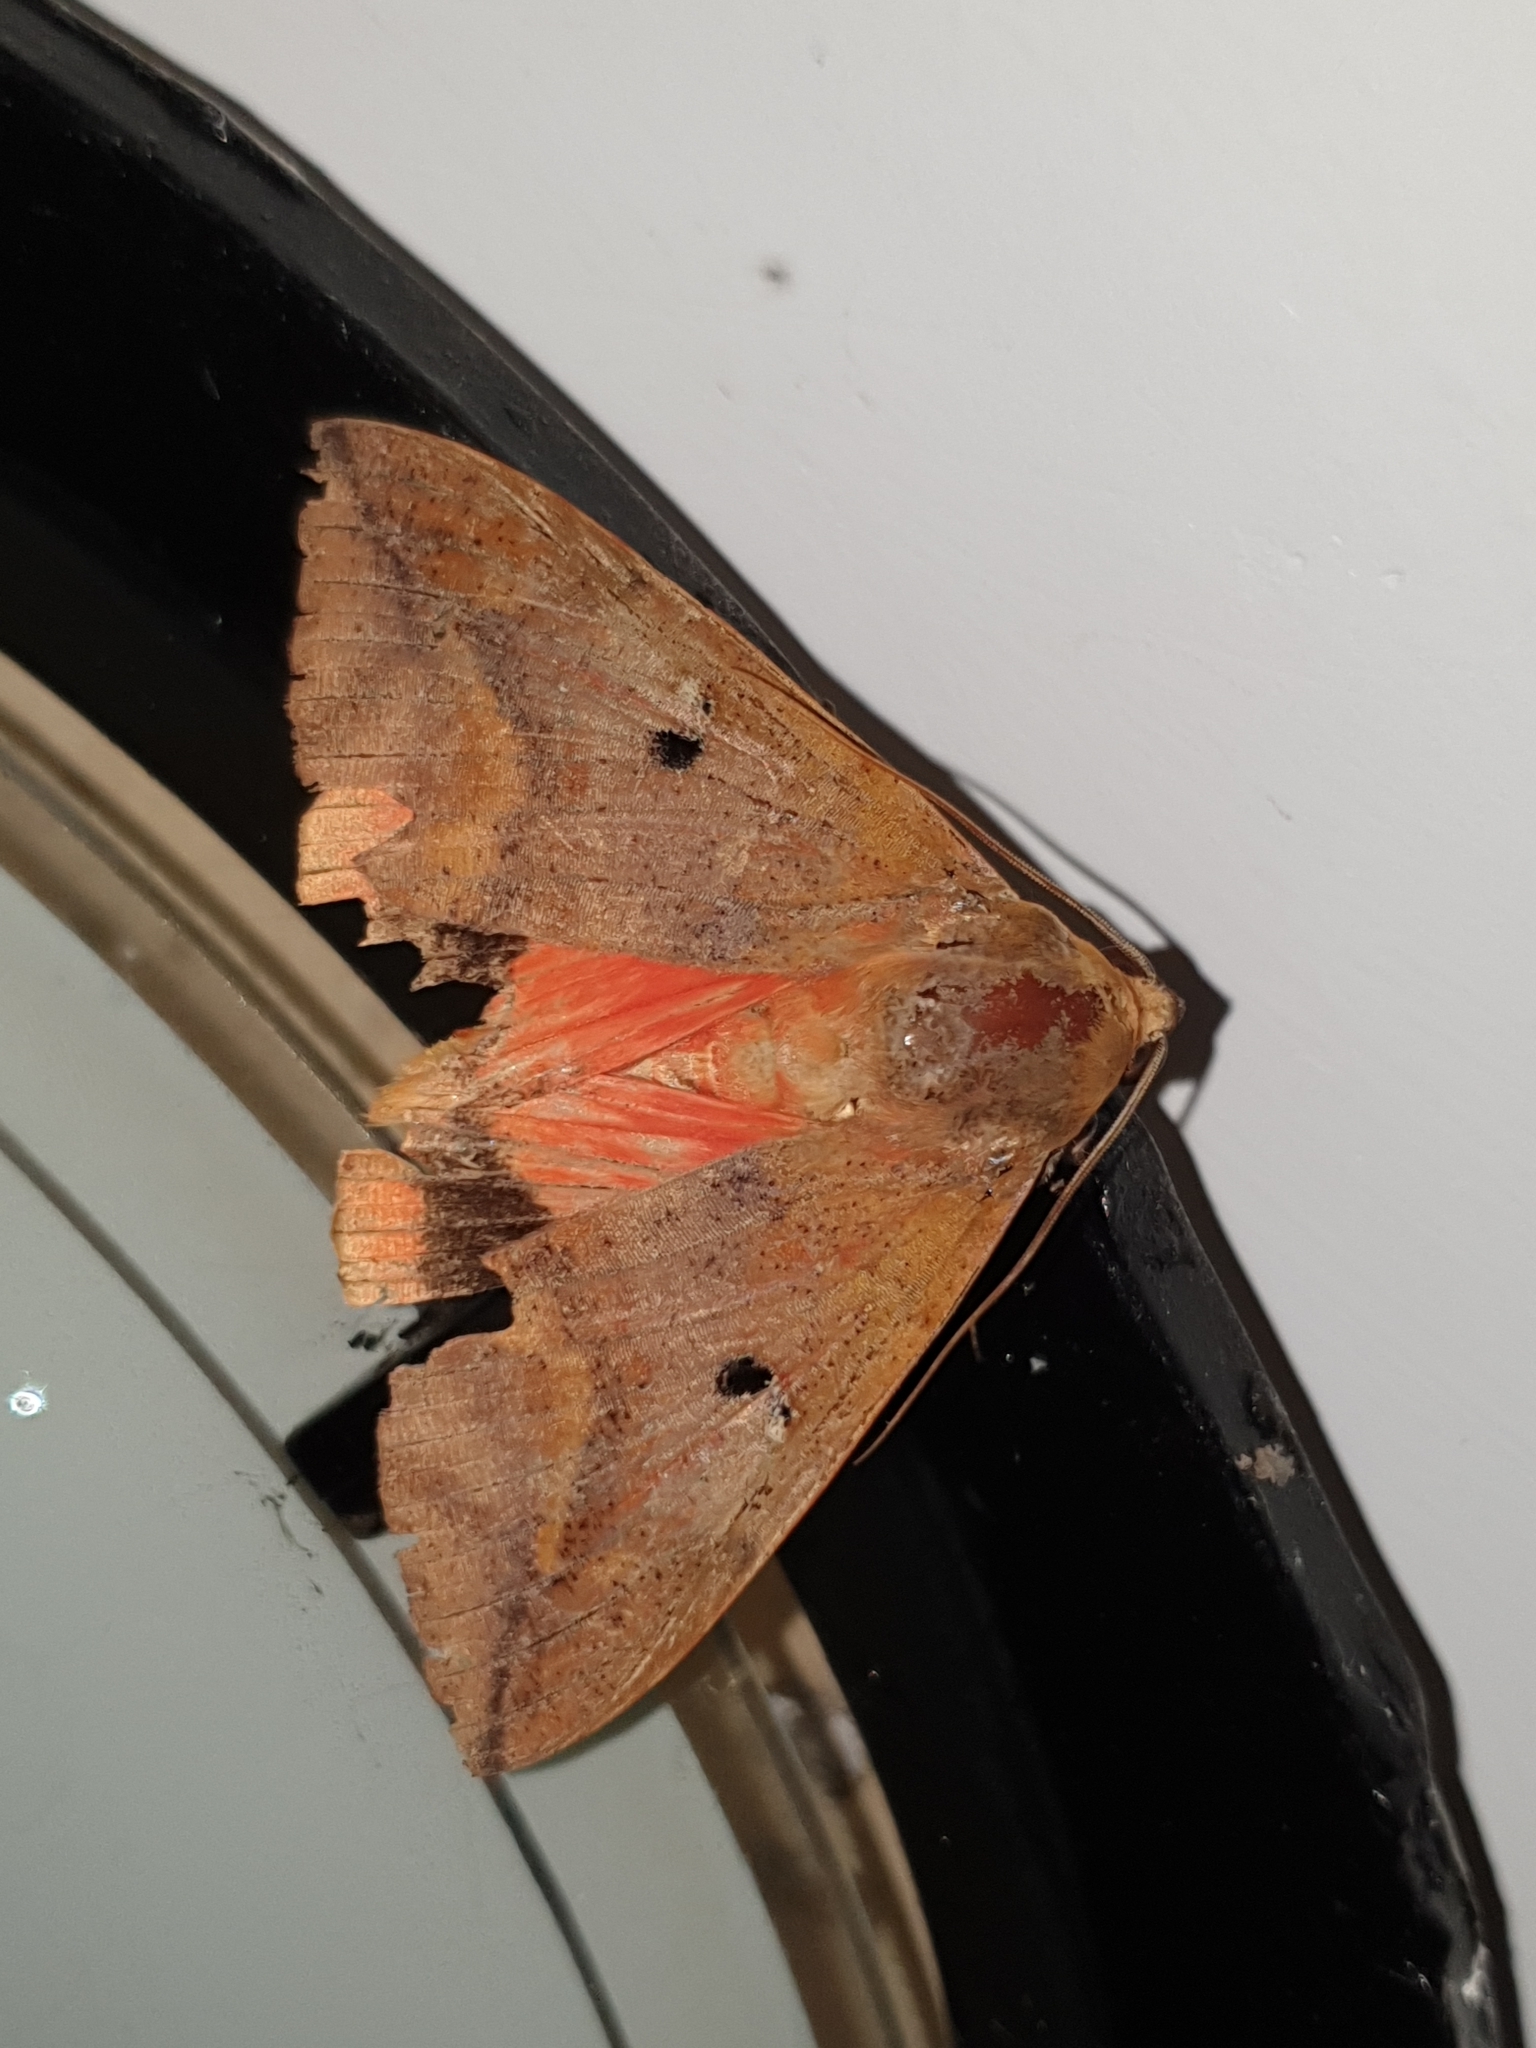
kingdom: Animalia
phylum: Arthropoda
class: Insecta
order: Lepidoptera
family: Erebidae
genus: Thyas
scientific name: Thyas honesta
